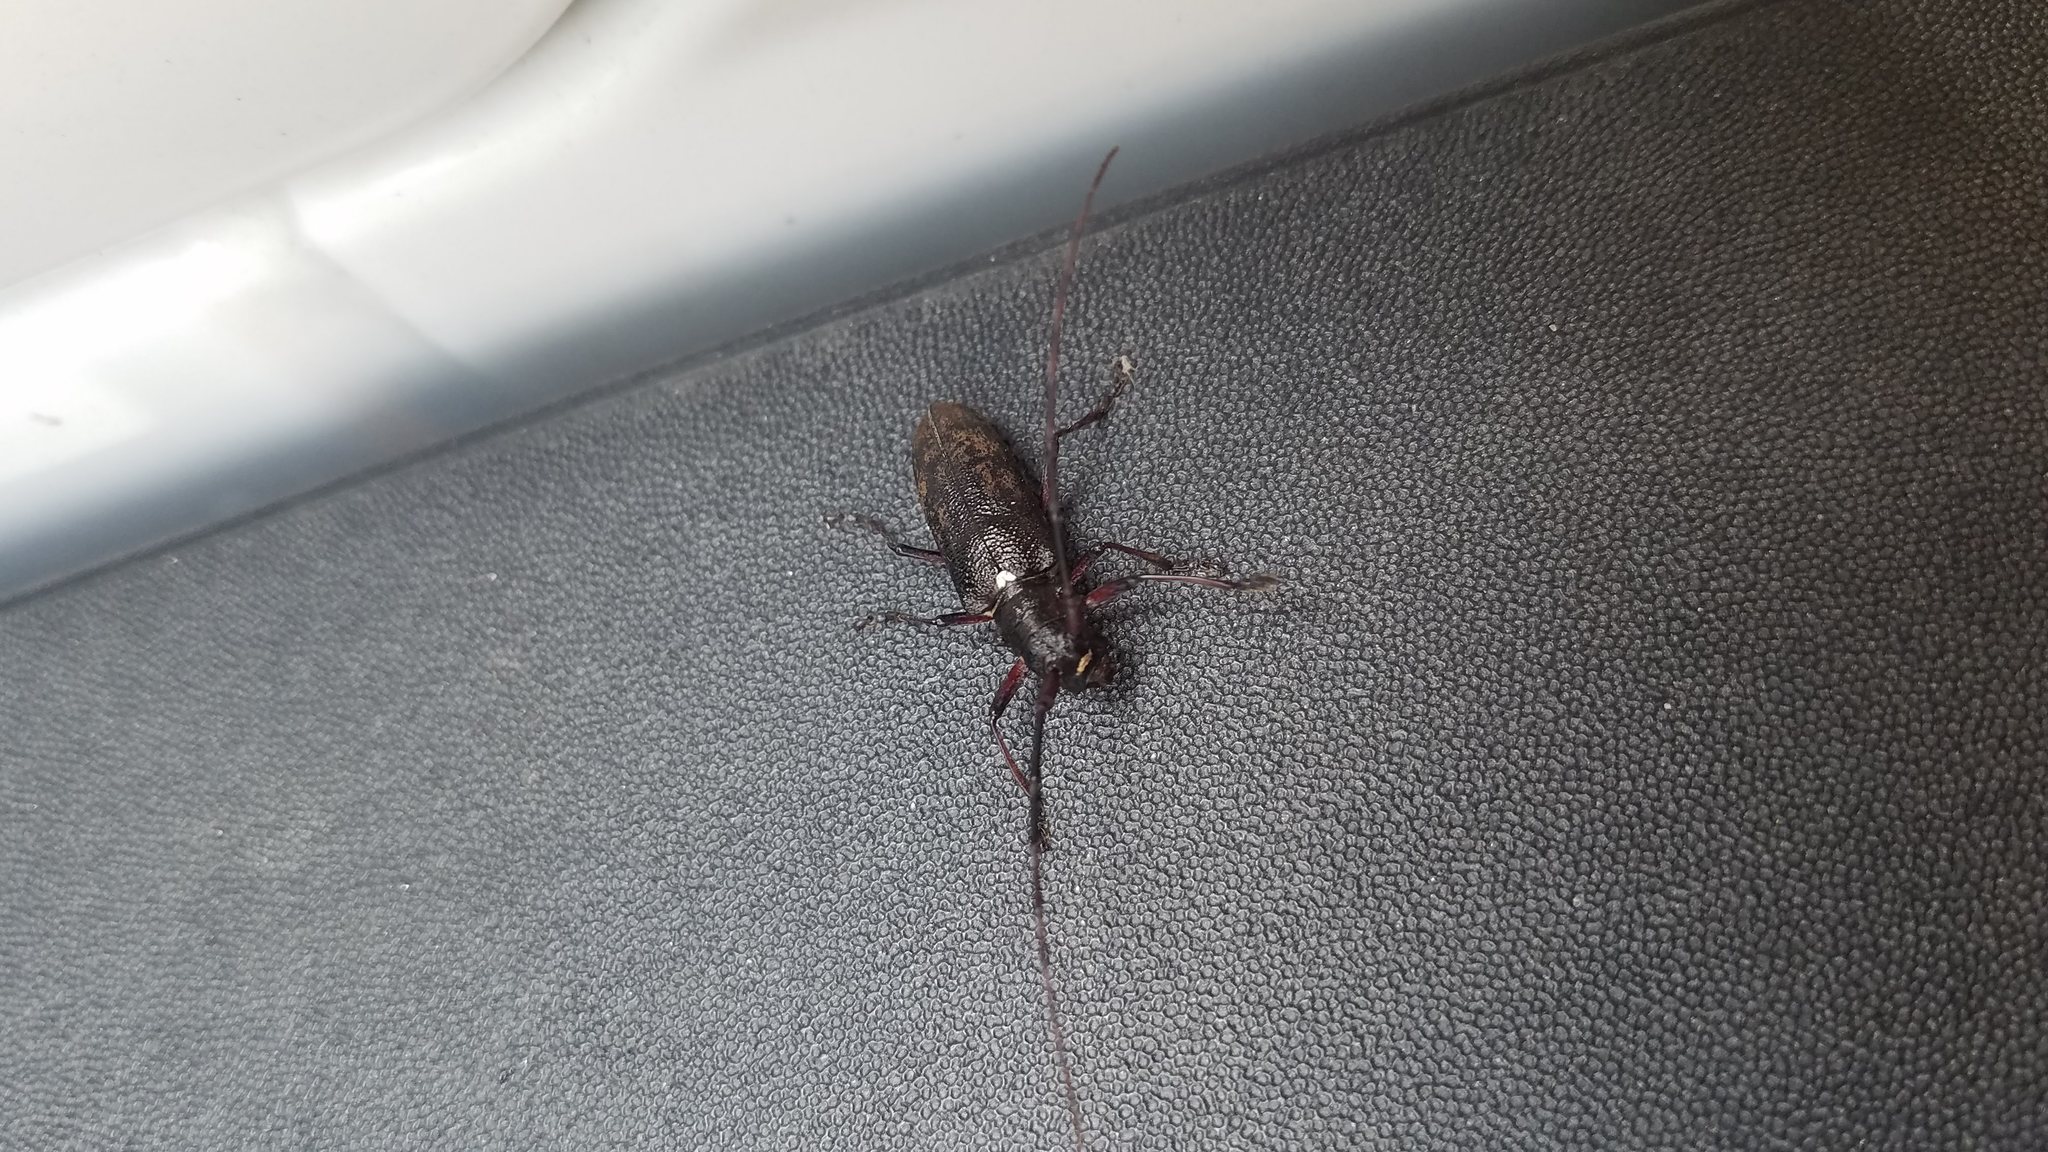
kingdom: Animalia
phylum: Arthropoda
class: Insecta
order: Coleoptera
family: Cerambycidae
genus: Monochamus
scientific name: Monochamus scutellatus
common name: White-spotted sawyer beetle
